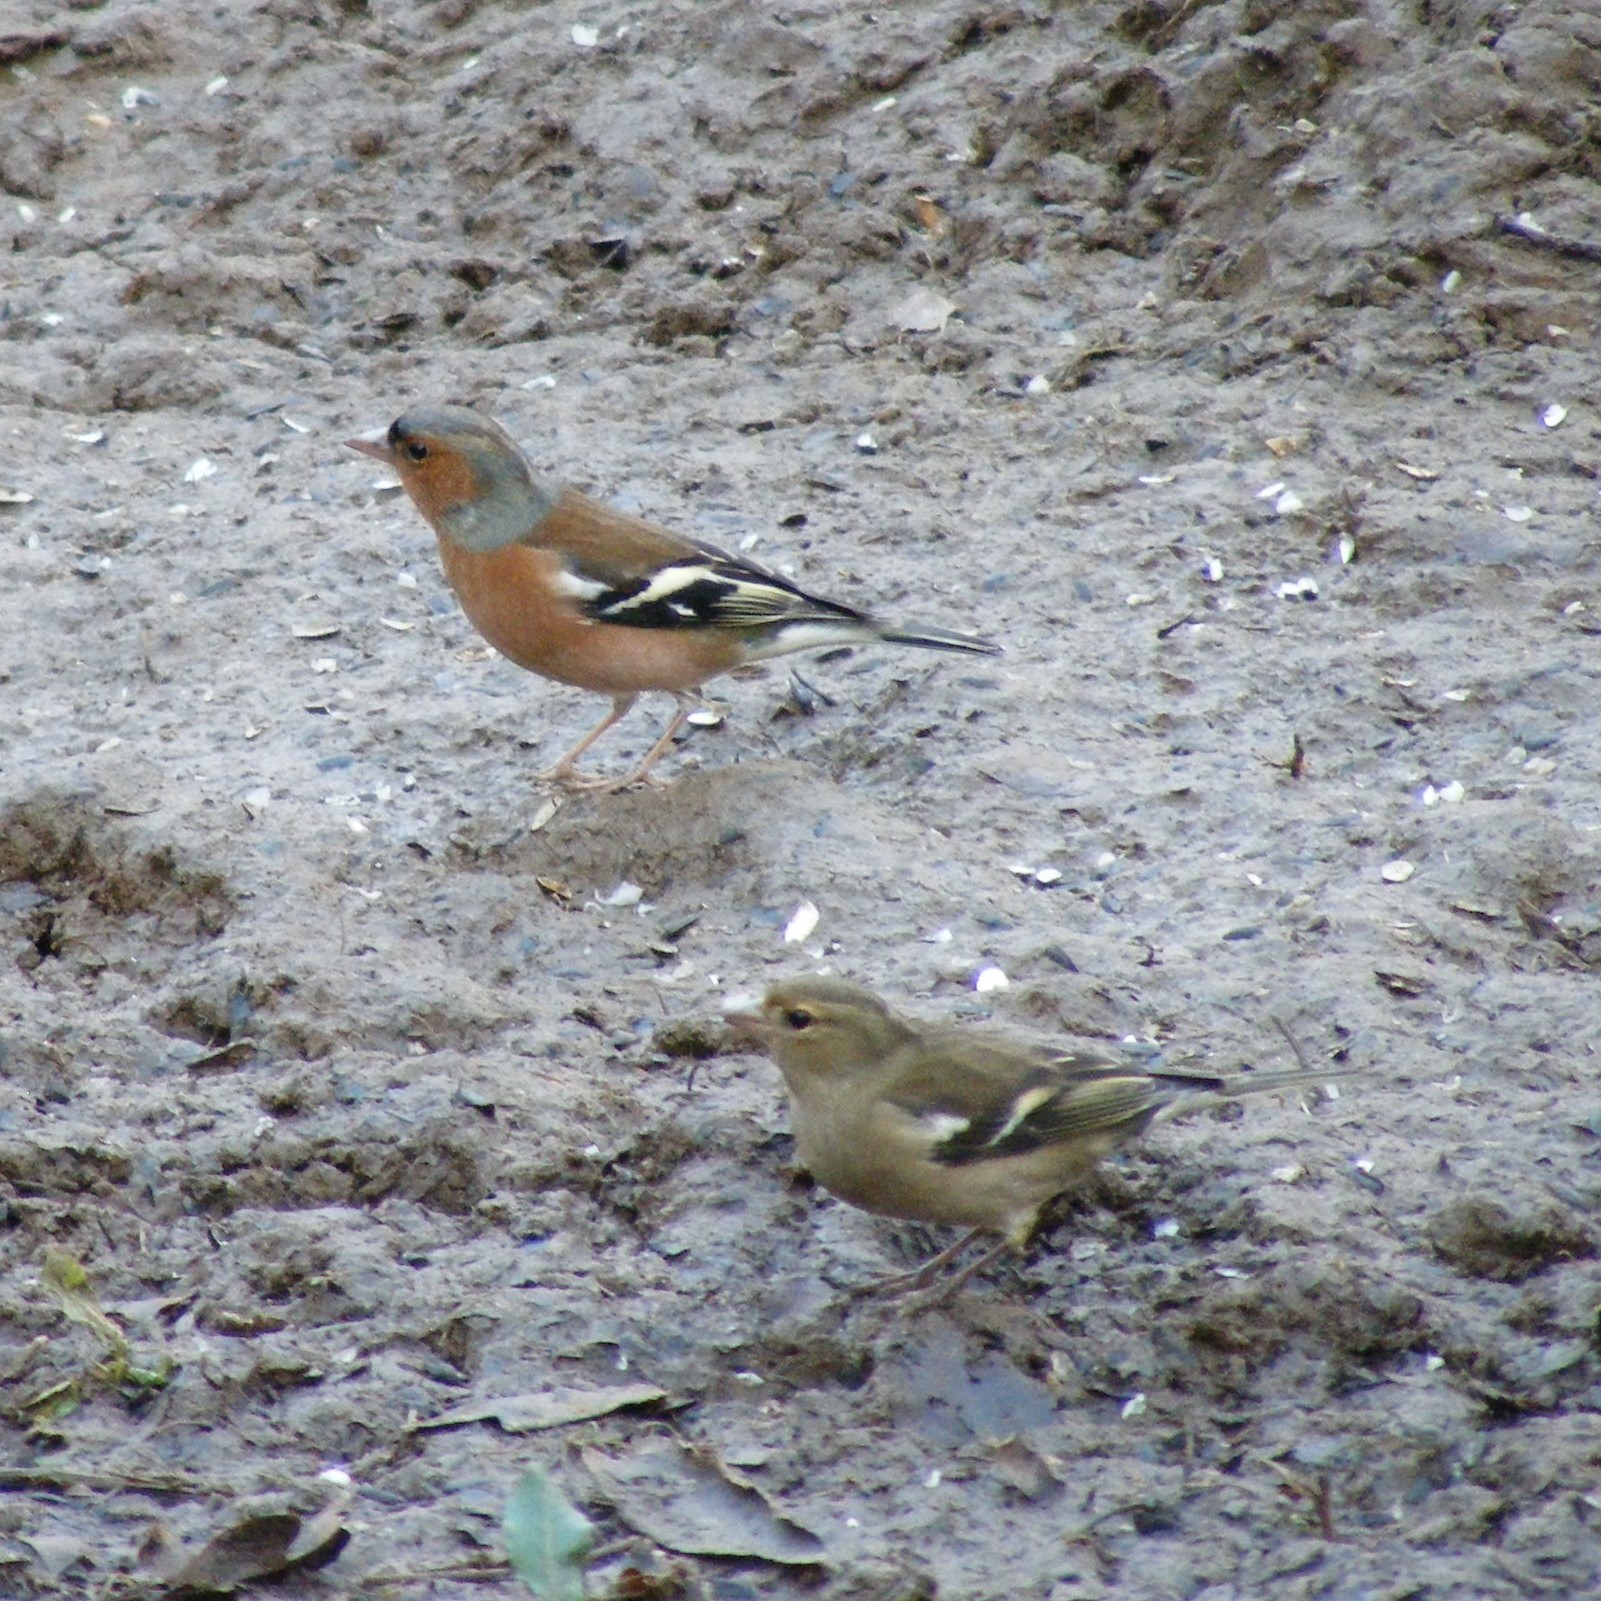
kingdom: Animalia
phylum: Chordata
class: Aves
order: Passeriformes
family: Fringillidae
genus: Fringilla
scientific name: Fringilla coelebs
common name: Common chaffinch
